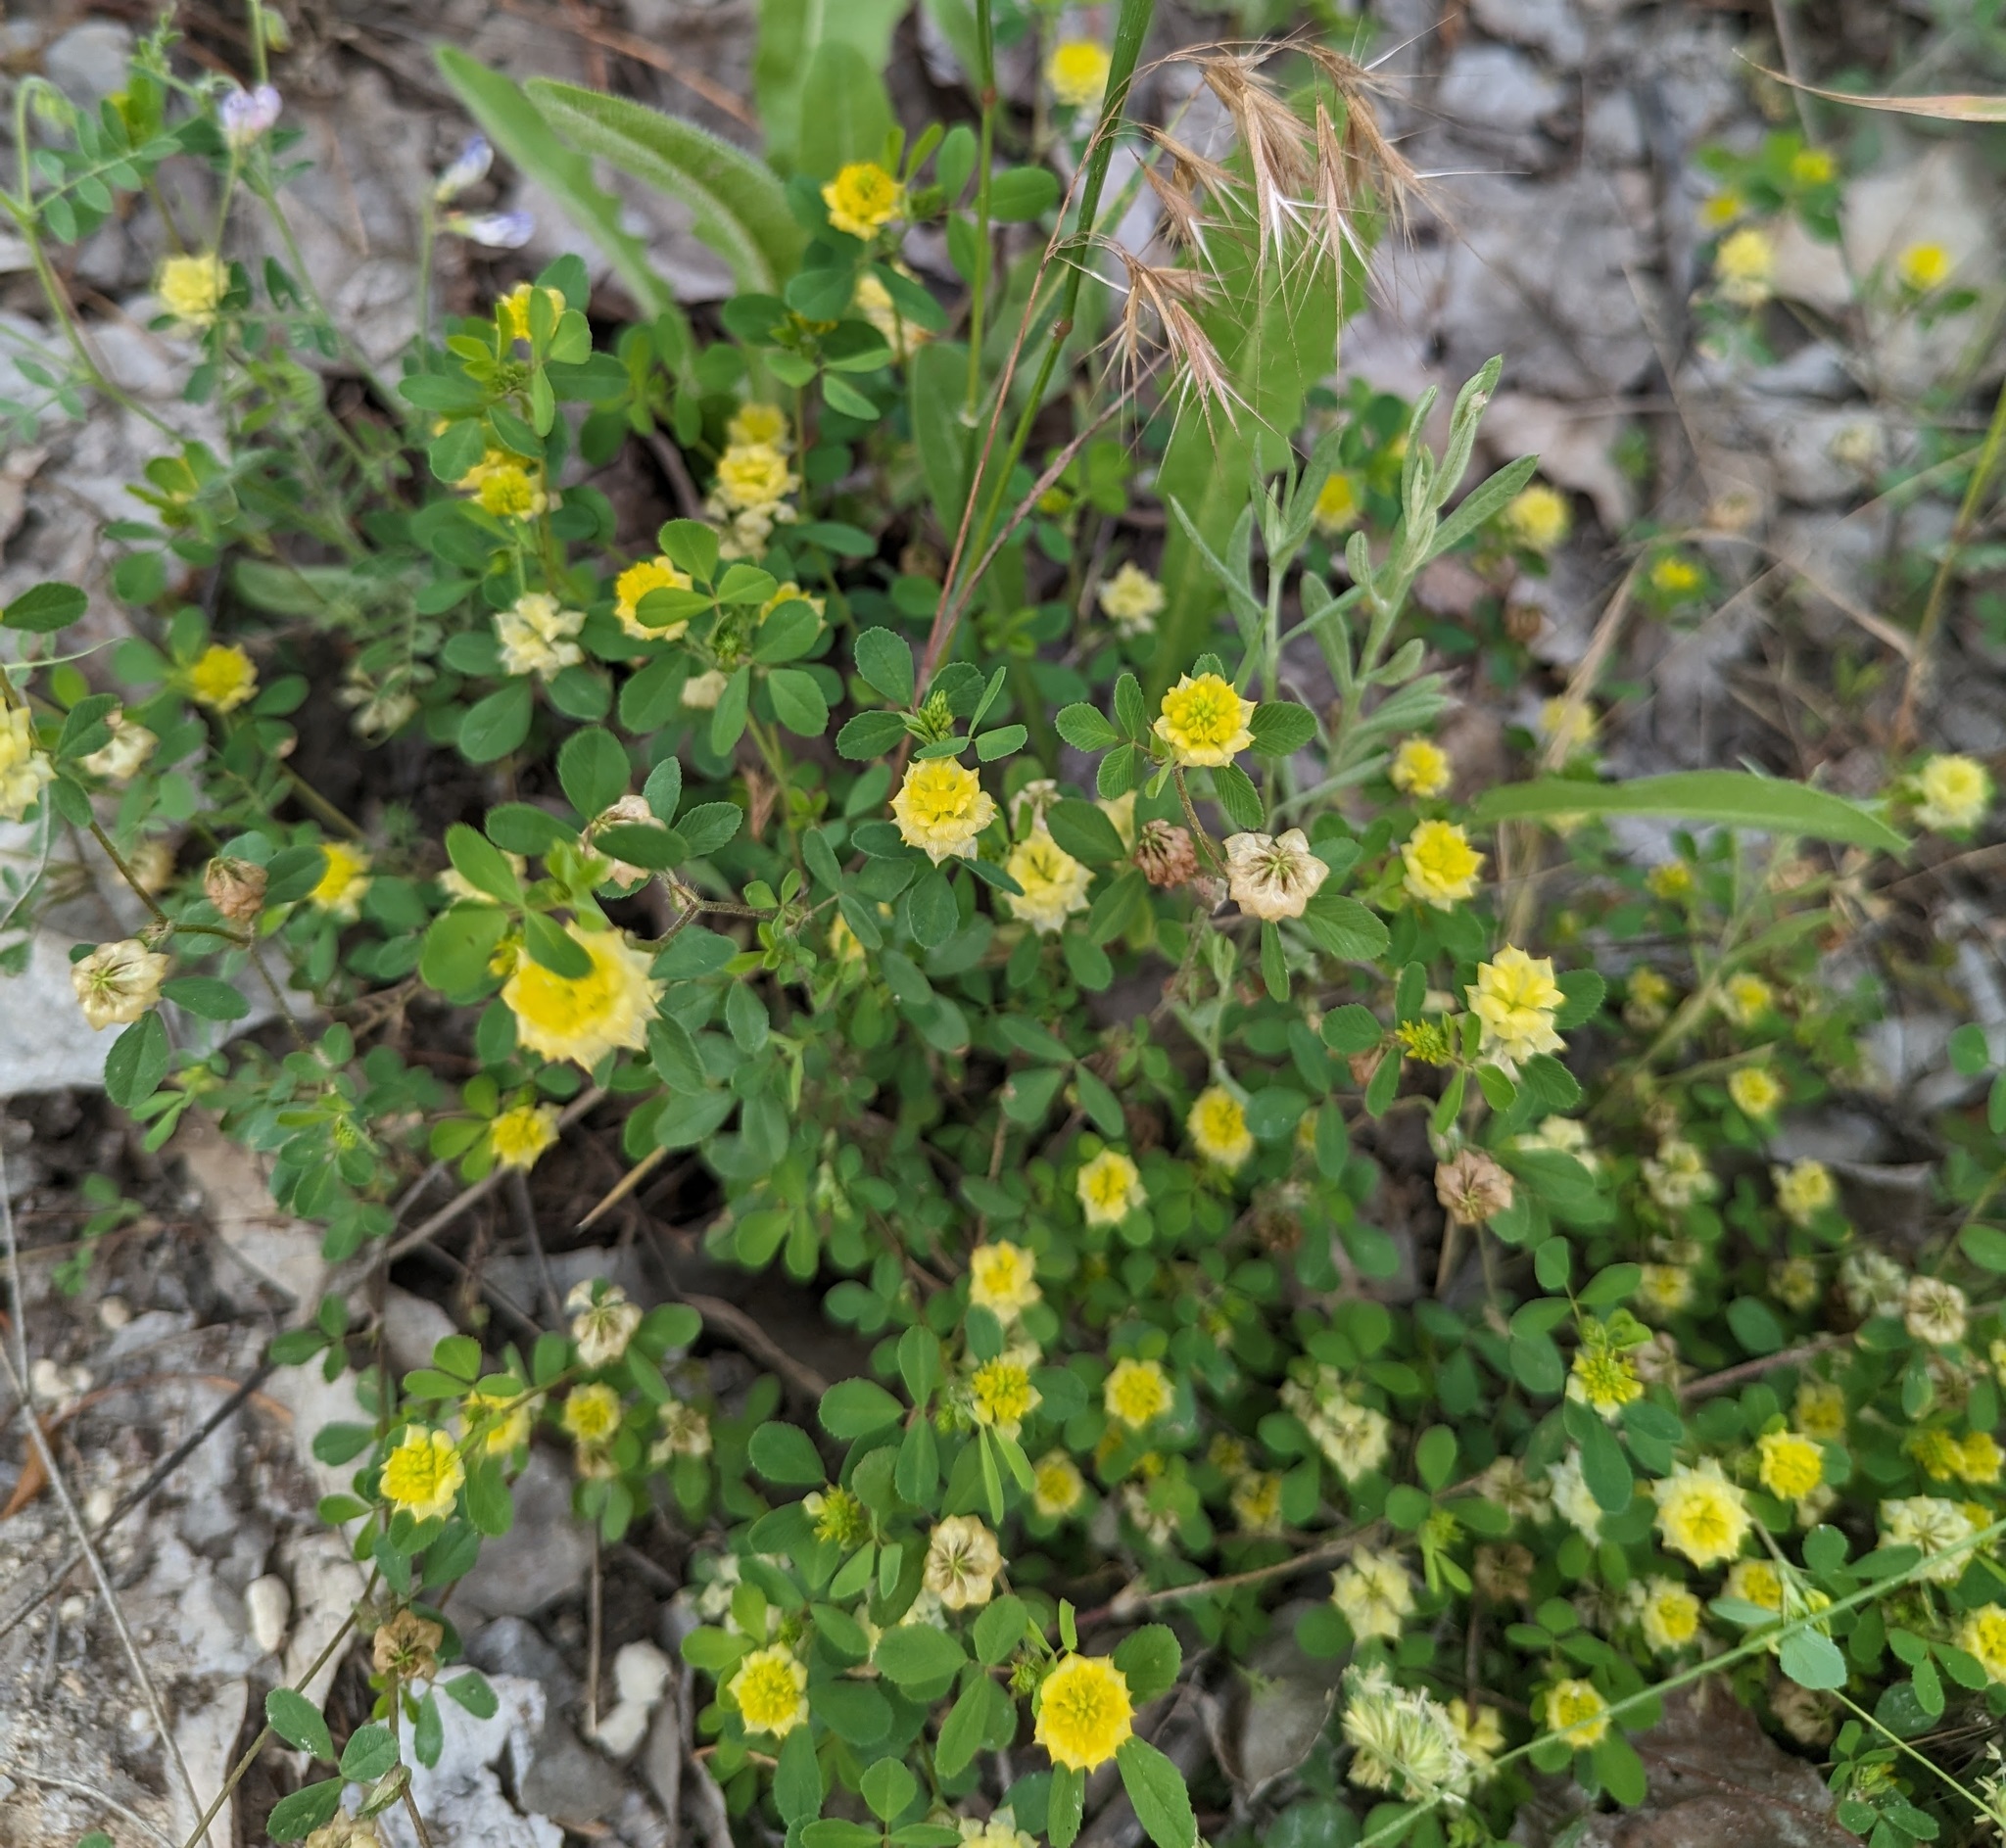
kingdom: Plantae
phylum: Tracheophyta
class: Magnoliopsida
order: Fabales
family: Fabaceae
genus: Trifolium
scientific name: Trifolium campestre
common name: Field clover
